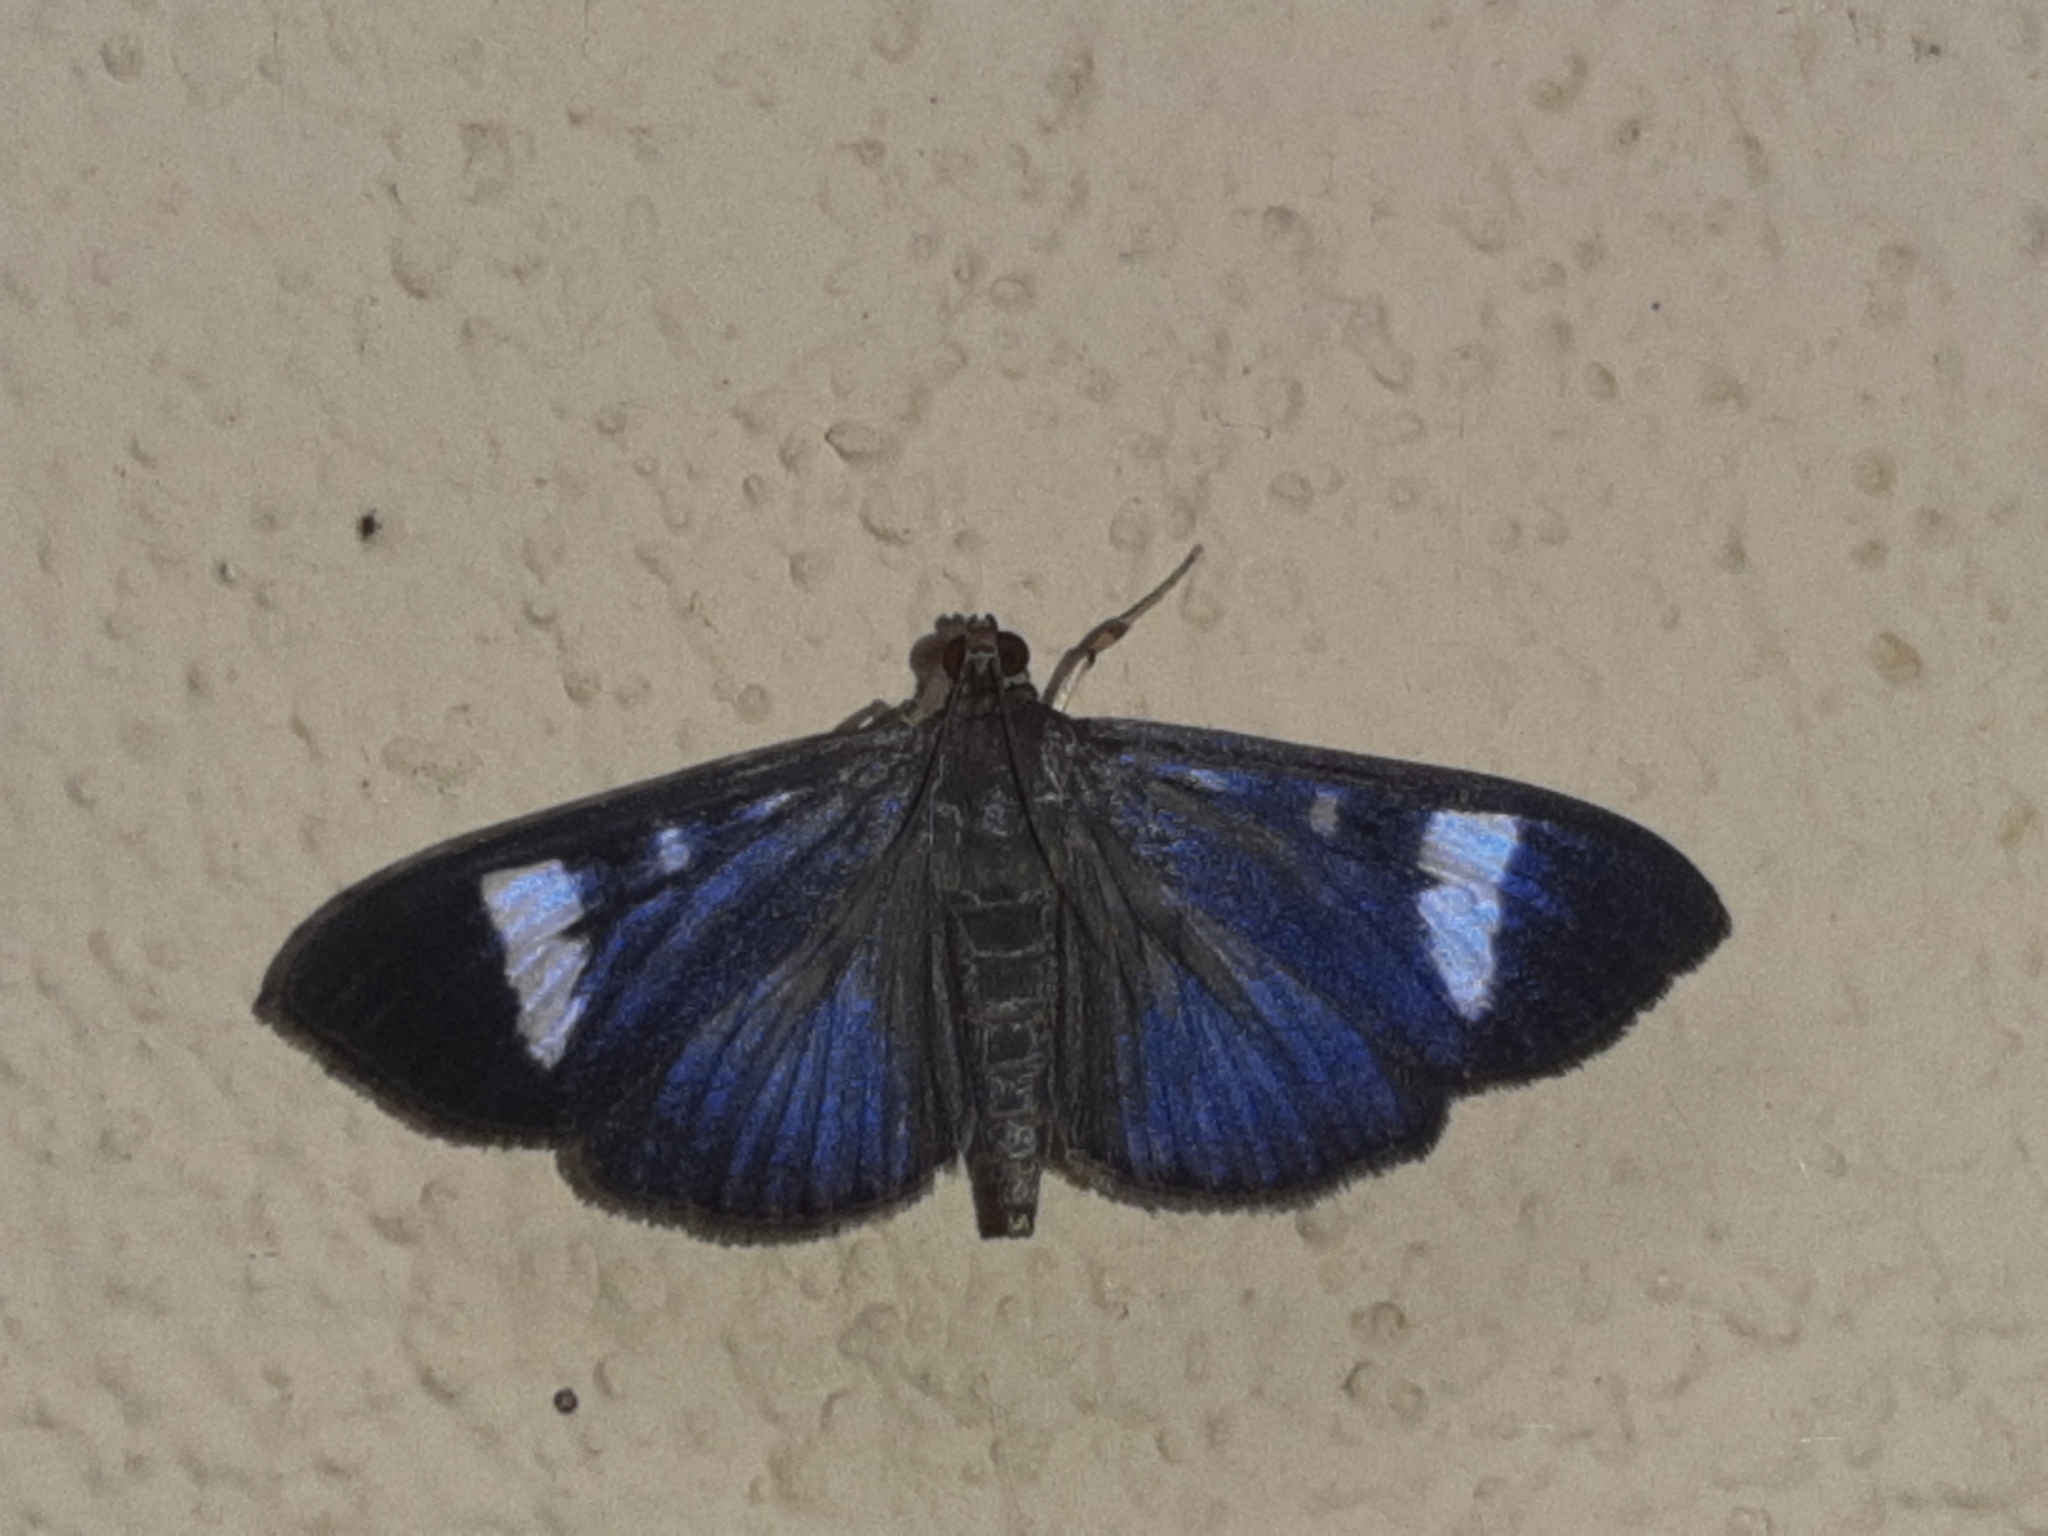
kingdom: Animalia
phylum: Arthropoda
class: Insecta
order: Lepidoptera
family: Crambidae
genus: Phostria
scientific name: Phostria Erilusa leucoplagialis
